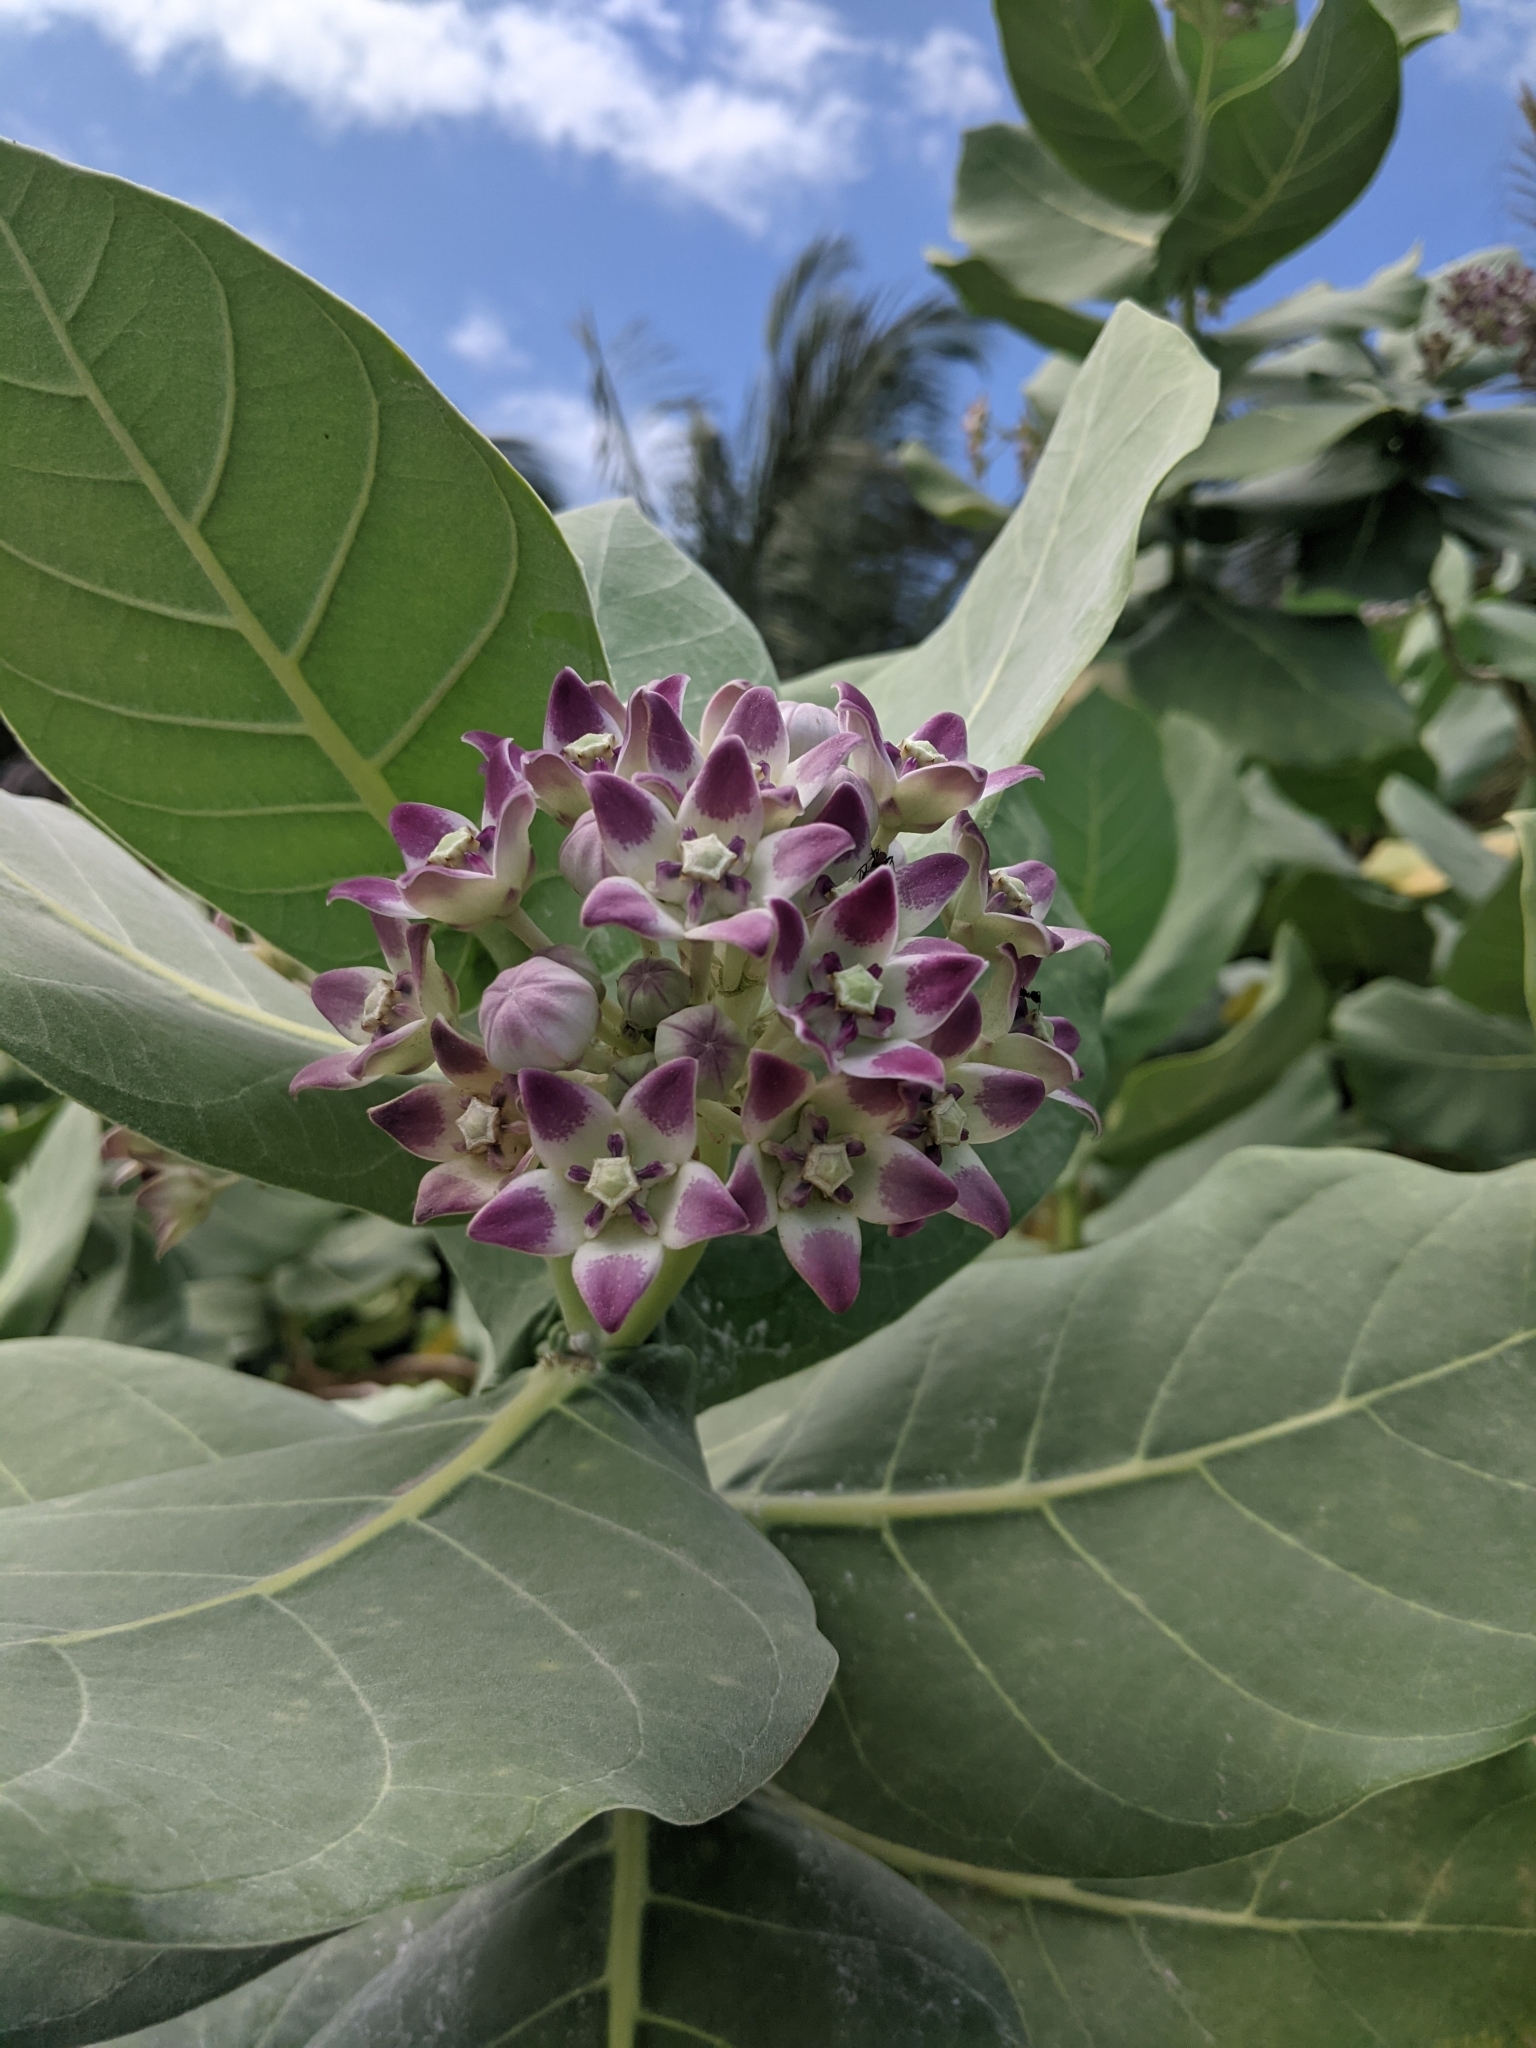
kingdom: Plantae
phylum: Tracheophyta
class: Magnoliopsida
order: Gentianales
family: Apocynaceae
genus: Calotropis
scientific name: Calotropis procera
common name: Roostertree
